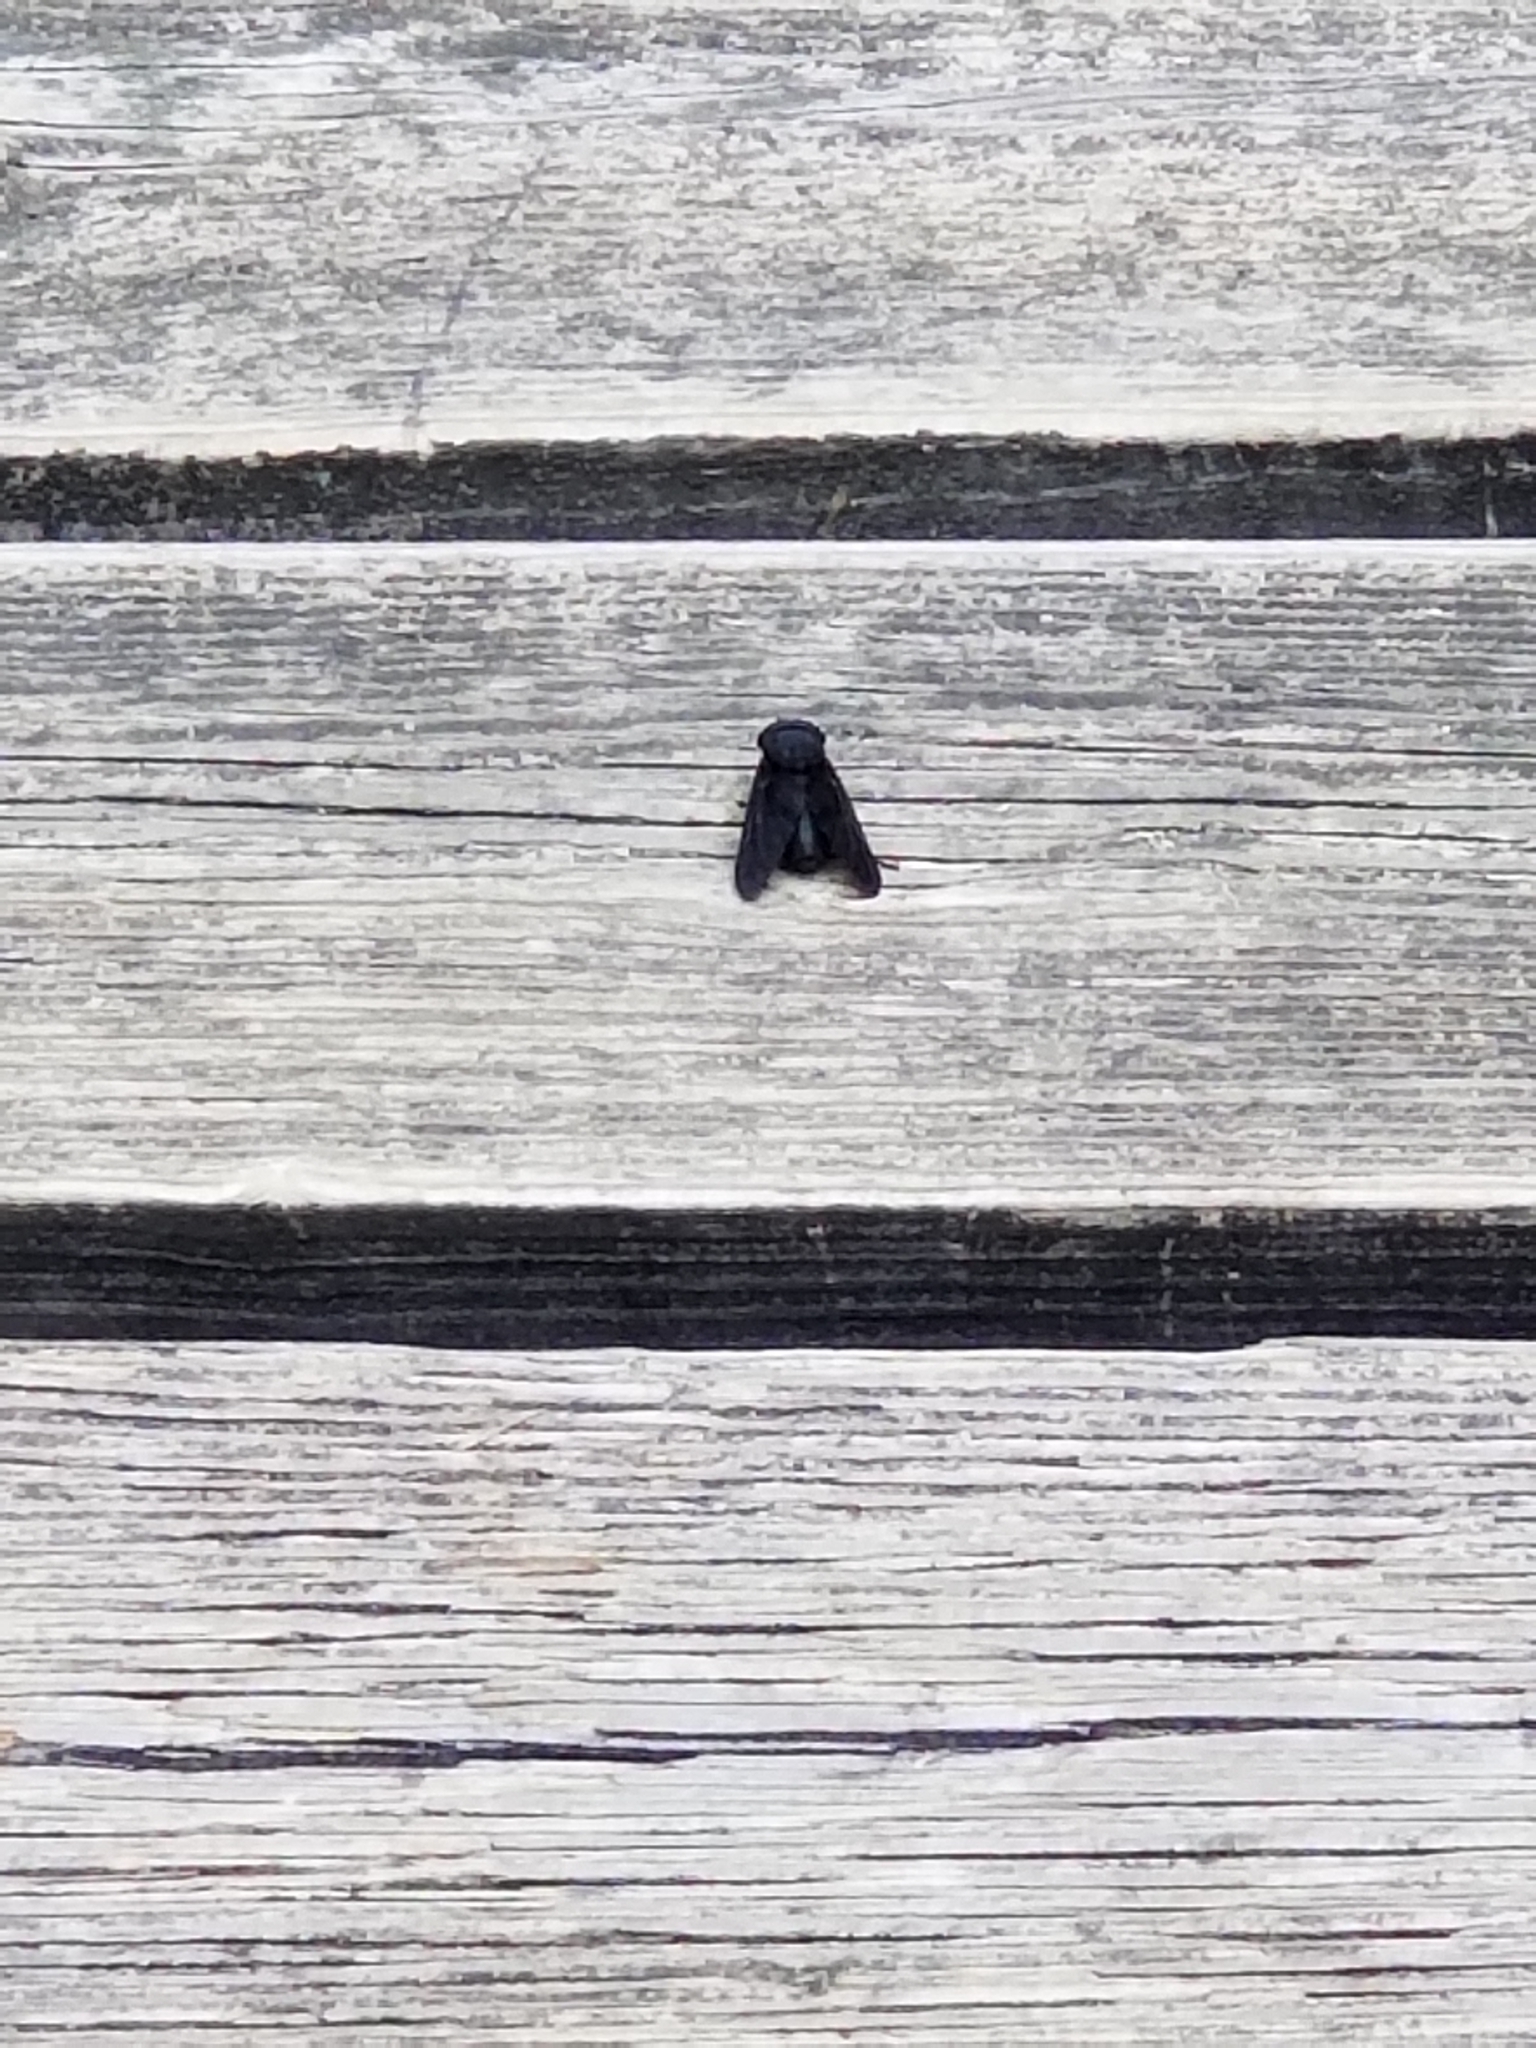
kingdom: Animalia
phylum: Arthropoda
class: Insecta
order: Diptera
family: Tabanidae
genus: Tabanus
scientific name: Tabanus atratus
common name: Black horse fly
